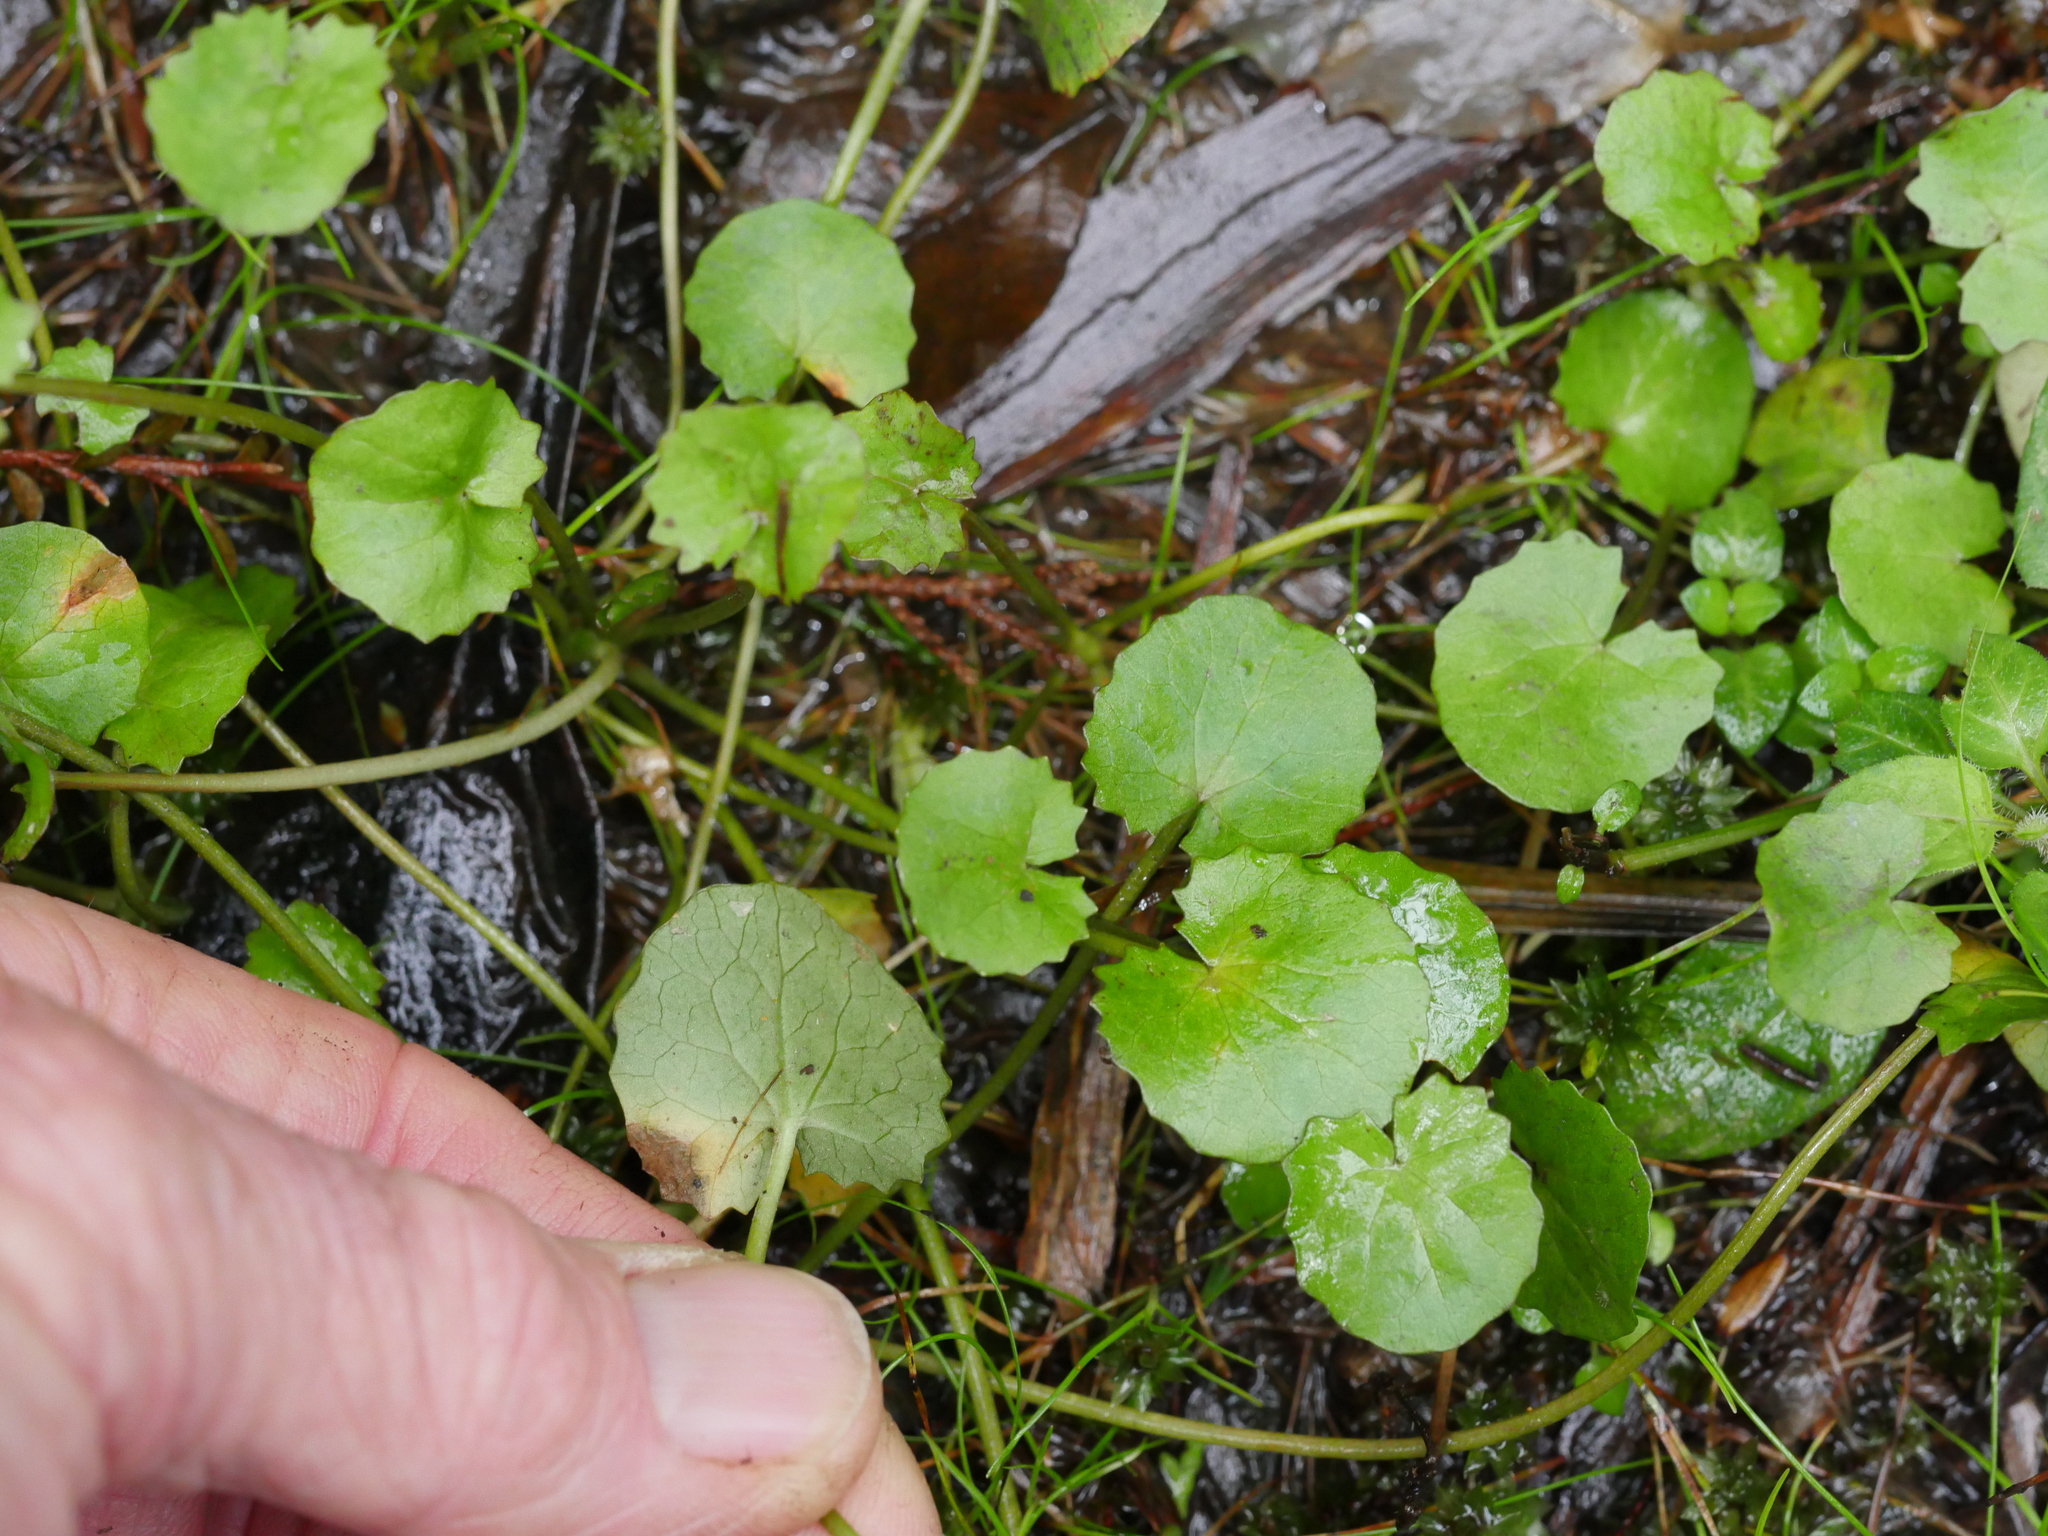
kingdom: Plantae
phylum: Tracheophyta
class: Magnoliopsida
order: Apiales
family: Apiaceae
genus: Centella
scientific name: Centella uniflora
